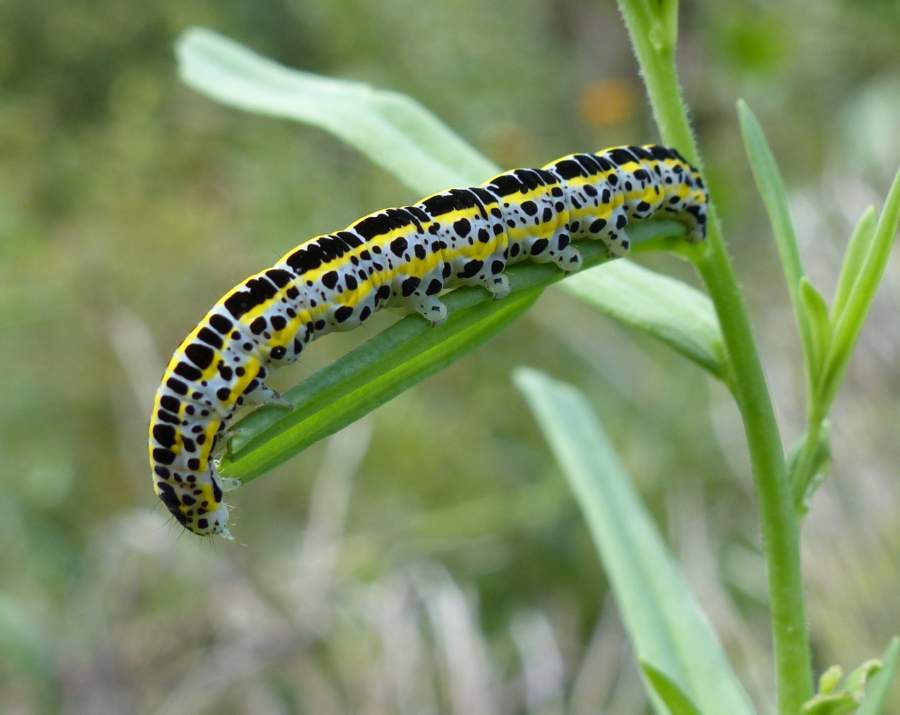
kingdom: Animalia
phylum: Arthropoda
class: Insecta
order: Lepidoptera
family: Noctuidae
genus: Calophasia
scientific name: Calophasia lunula
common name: Toadflax brocade
